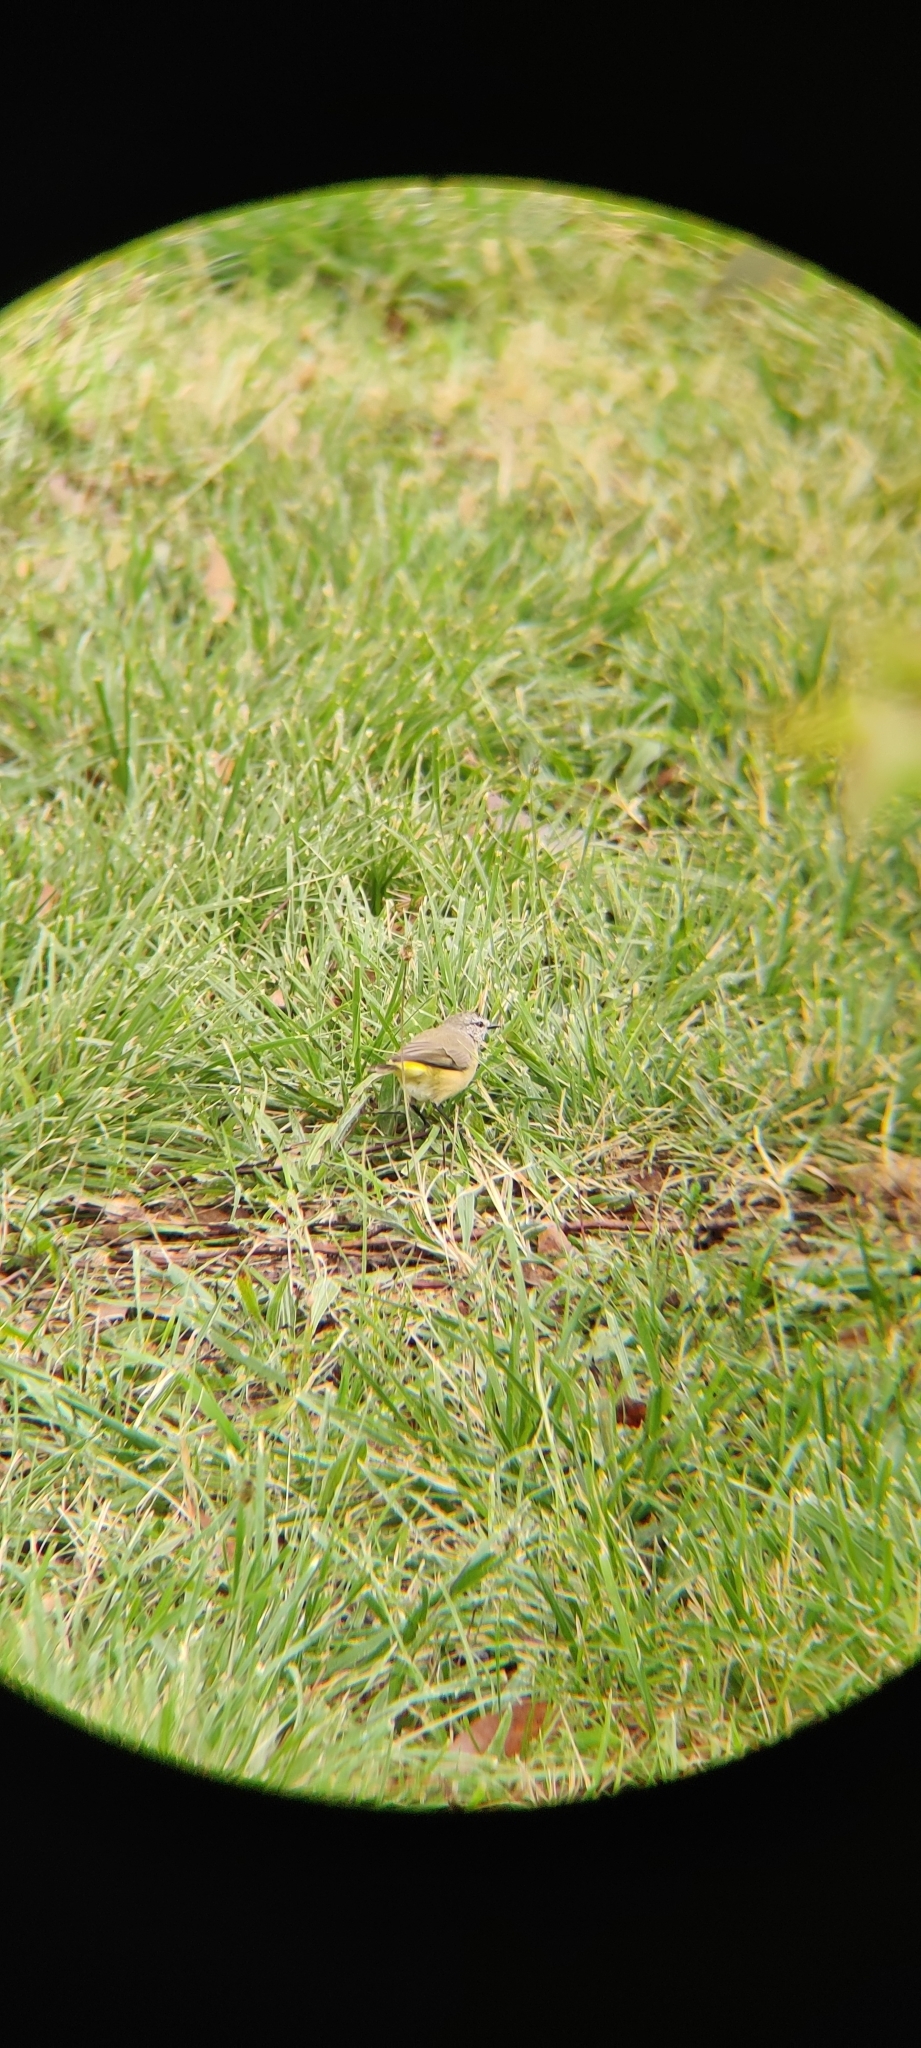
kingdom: Animalia
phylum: Chordata
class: Aves
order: Passeriformes
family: Acanthizidae
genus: Acanthiza
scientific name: Acanthiza chrysorrhoa
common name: Yellow-rumped thornbill
